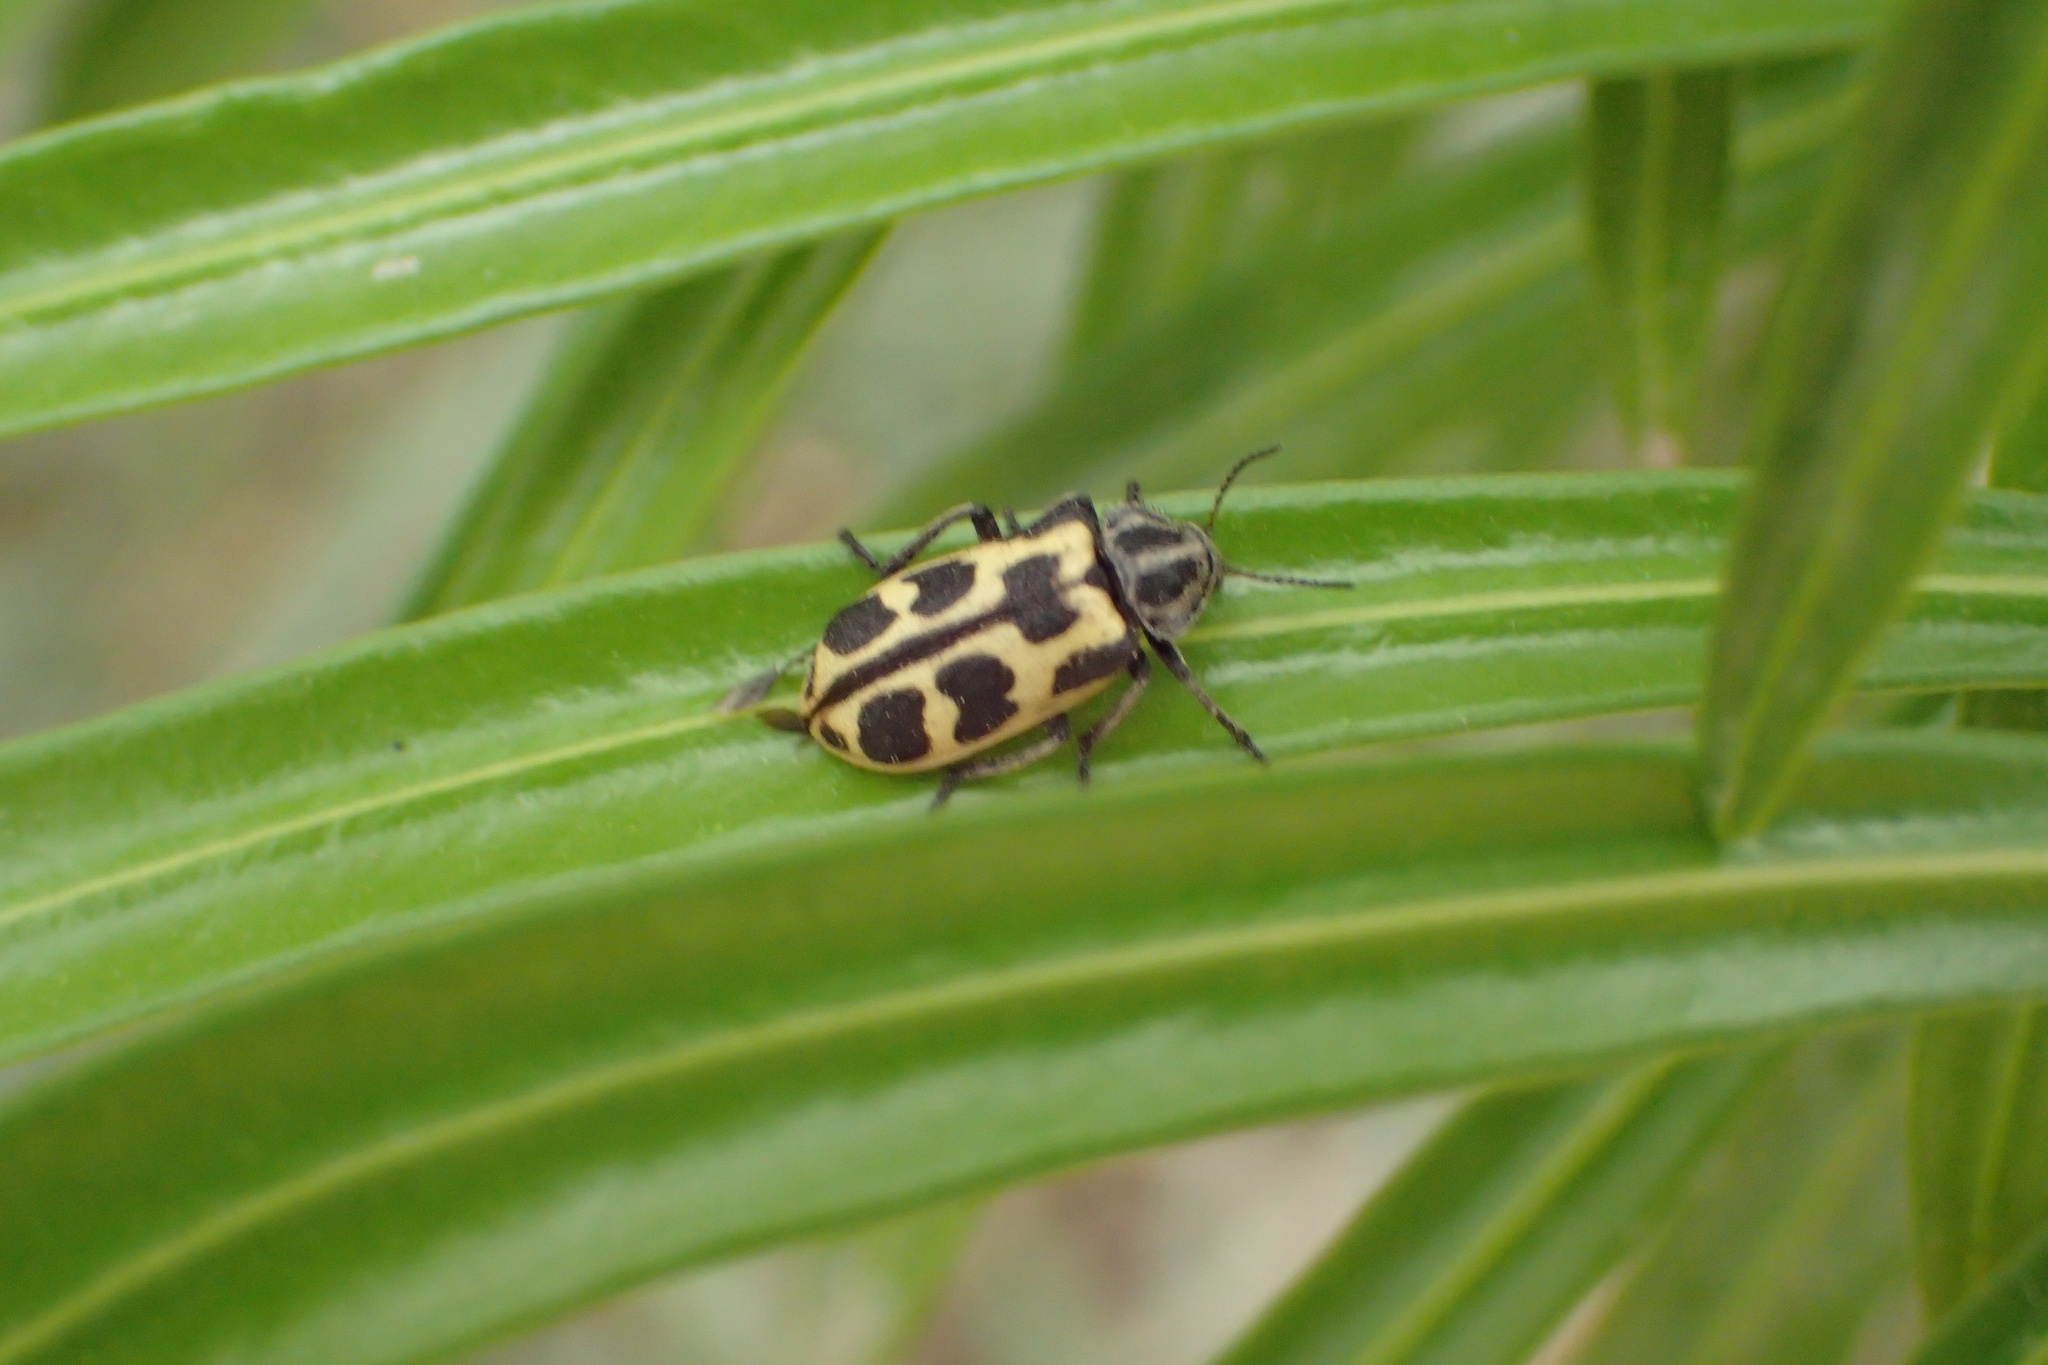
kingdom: Animalia
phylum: Arthropoda
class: Insecta
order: Coleoptera
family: Melyridae
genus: Astylus
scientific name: Astylus atromaculatus
